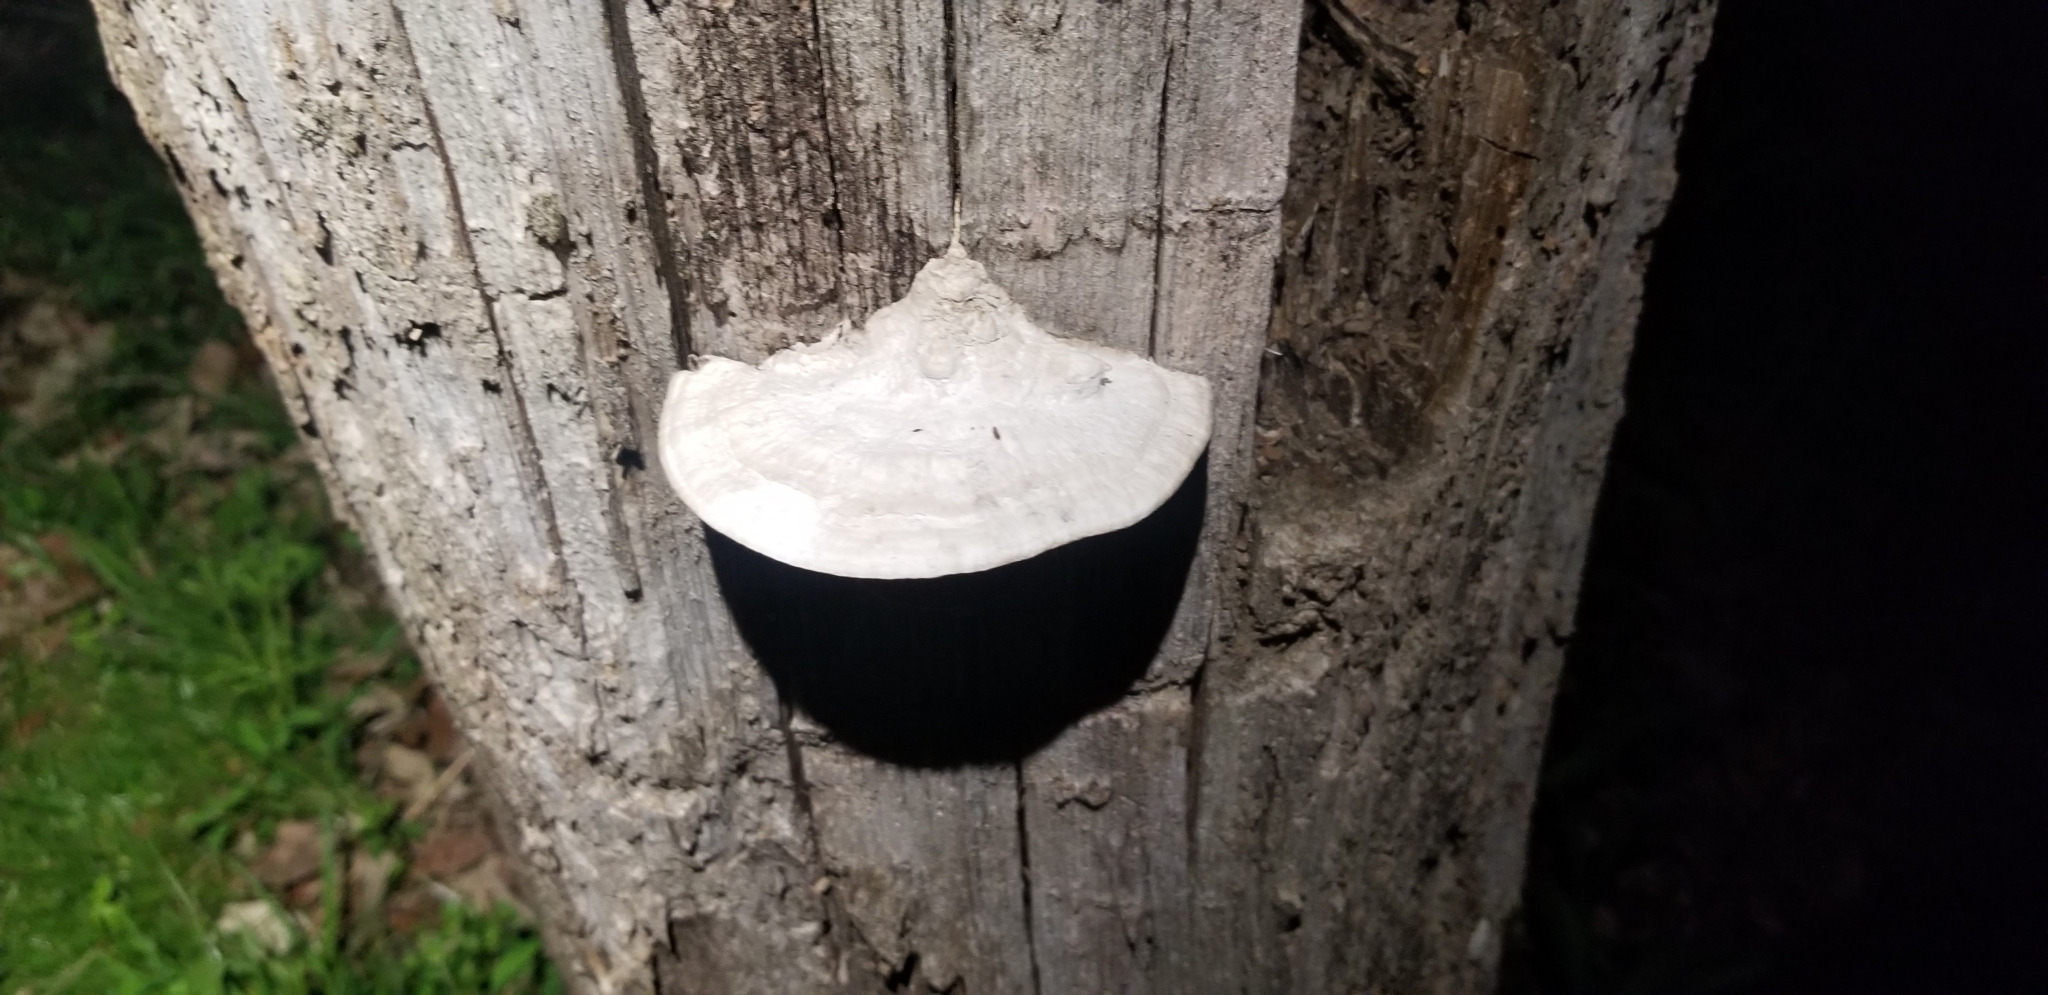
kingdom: Fungi
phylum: Basidiomycota
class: Agaricomycetes
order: Polyporales
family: Fomitopsidaceae
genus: Fomitopsis
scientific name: Fomitopsis
